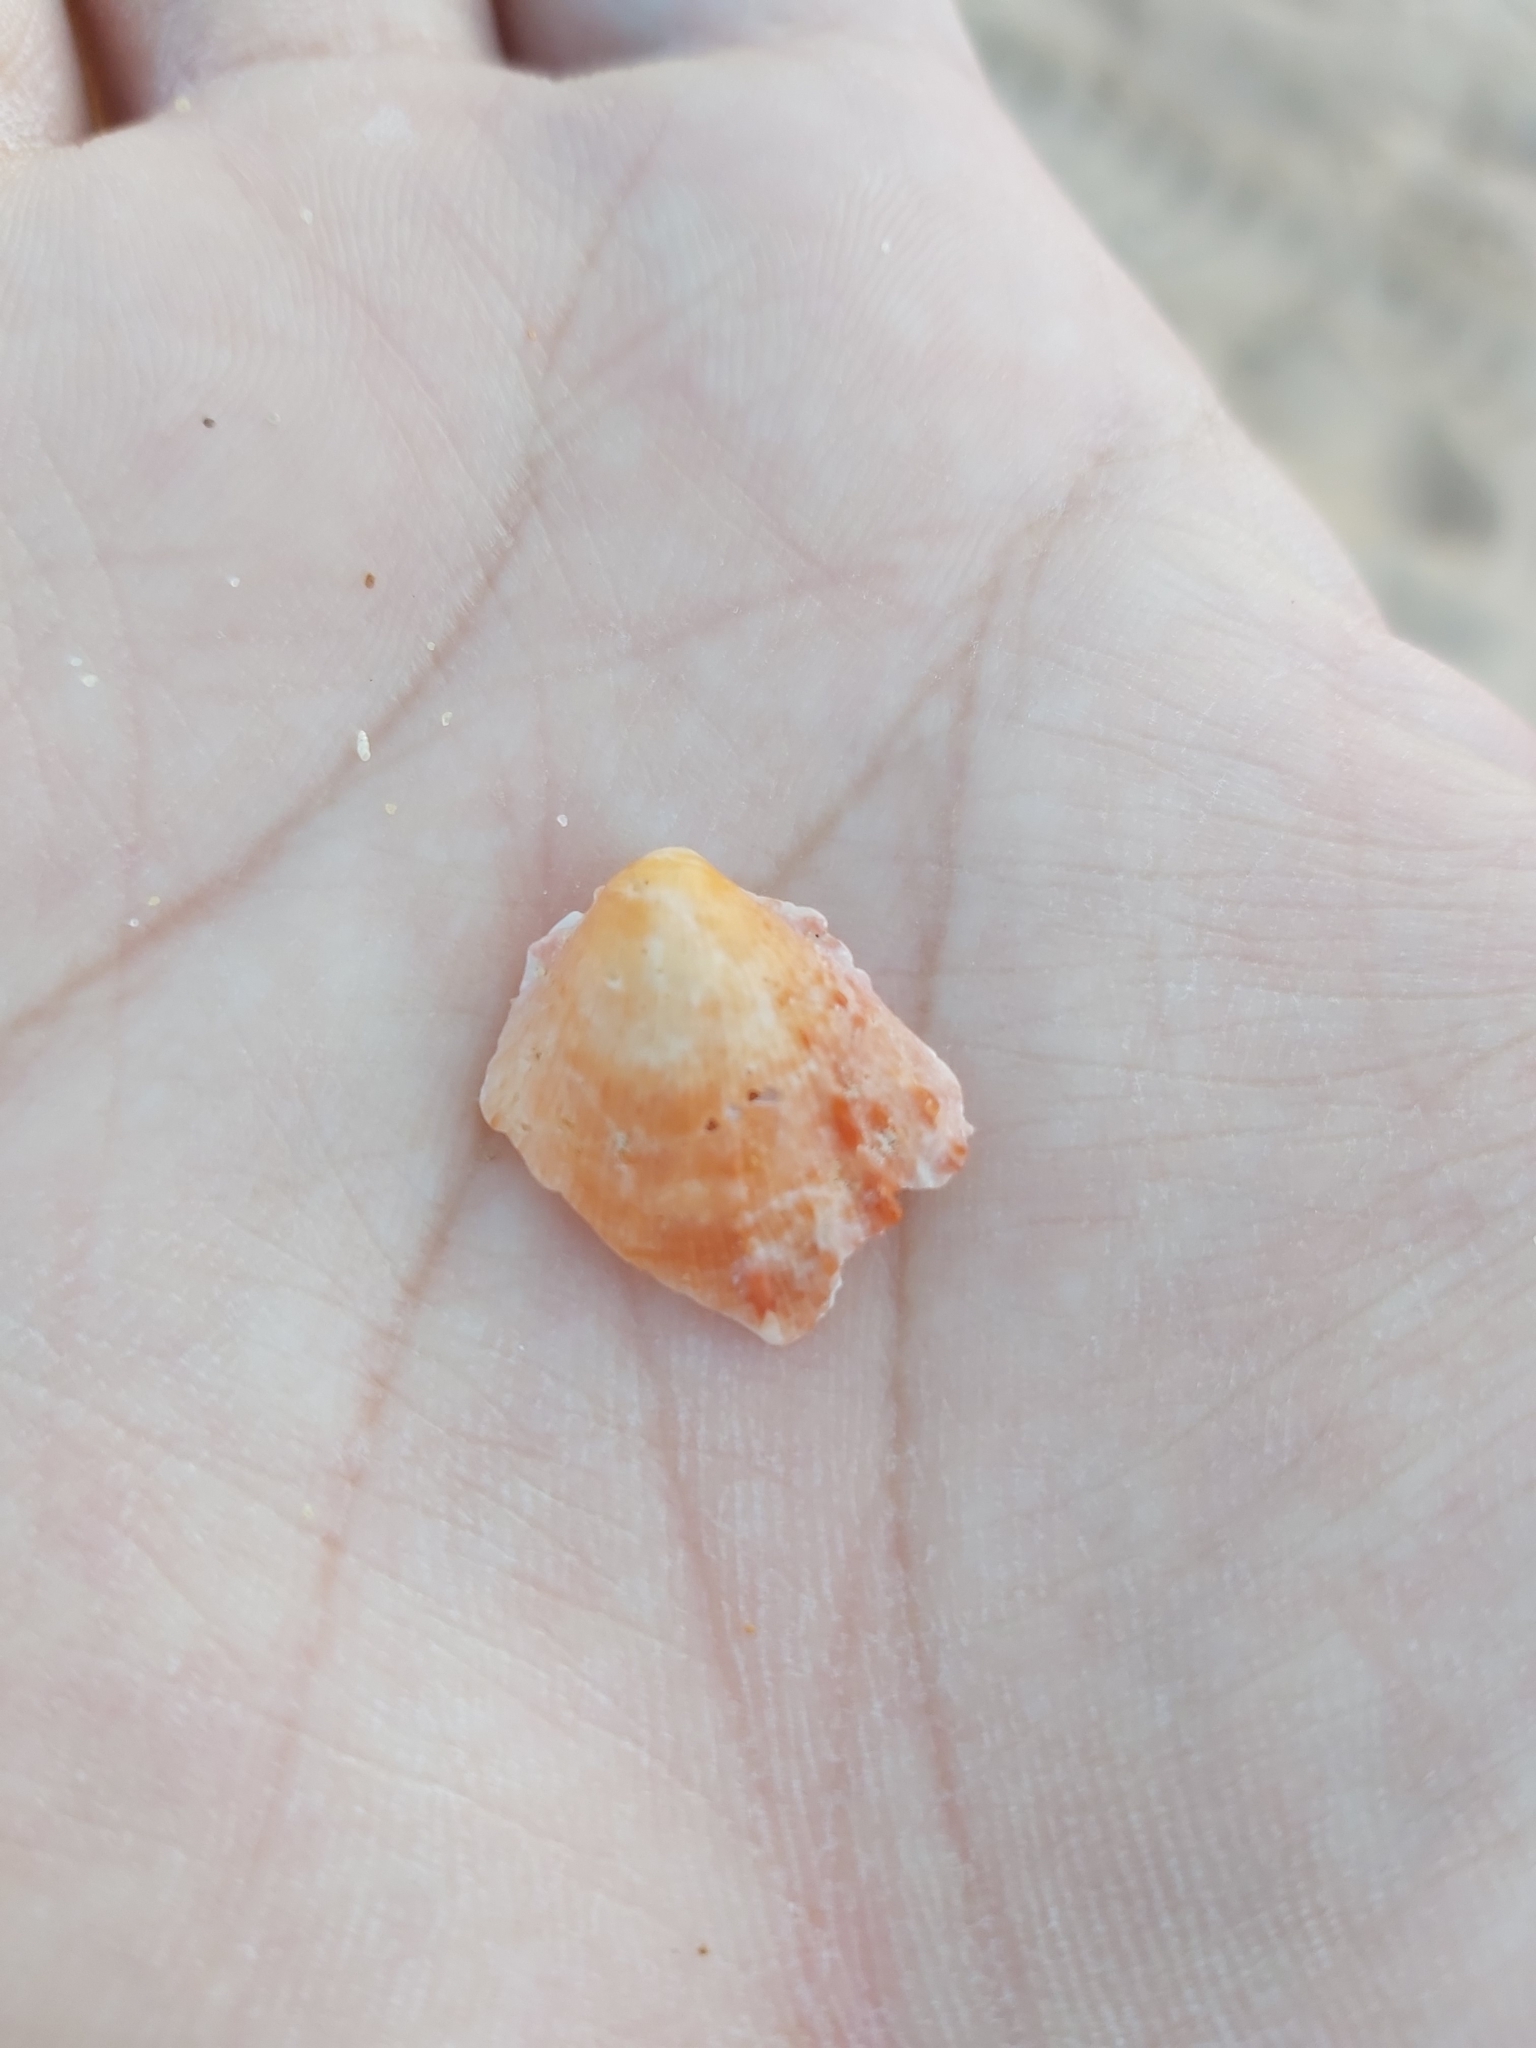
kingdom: Animalia
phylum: Mollusca
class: Bivalvia
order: Pectinida
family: Spondylidae
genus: Spondylus
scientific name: Spondylus tenellus
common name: Scarlet thorny oyster
